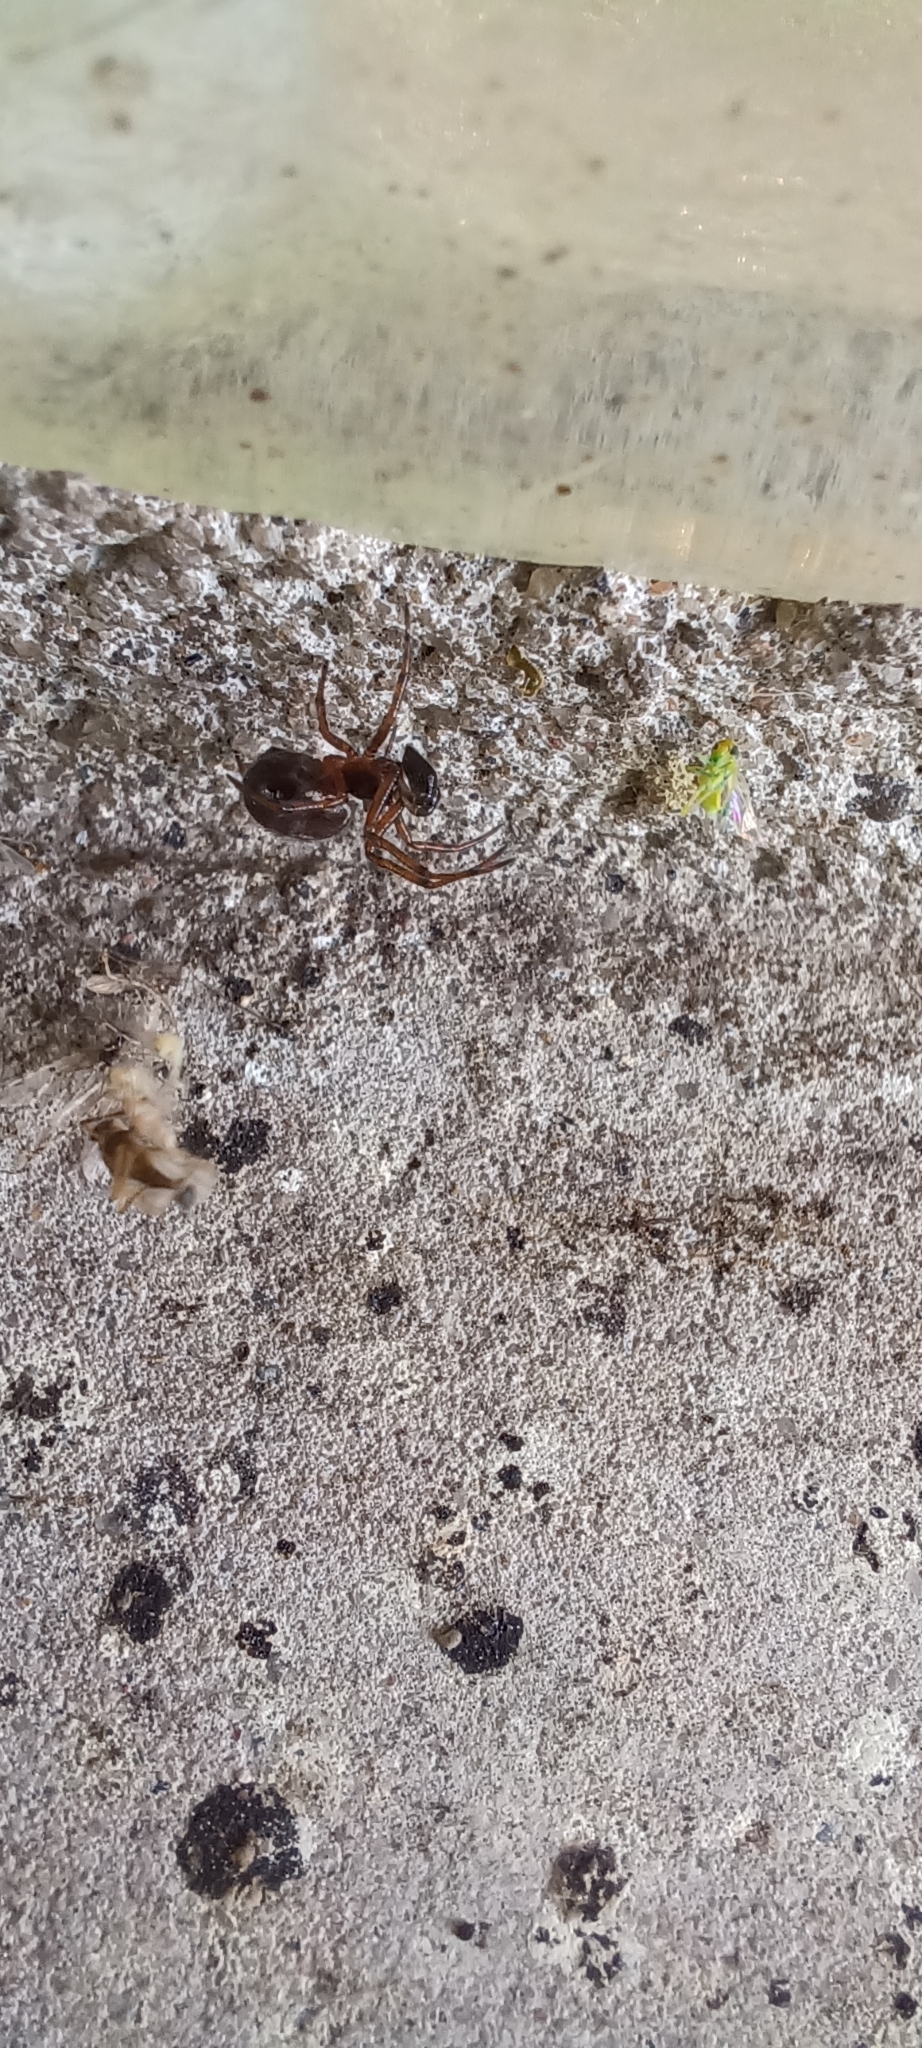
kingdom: Animalia
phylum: Arthropoda
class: Arachnida
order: Araneae
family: Theridiidae
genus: Steatoda
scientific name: Steatoda borealis
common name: Boreal combfoot
